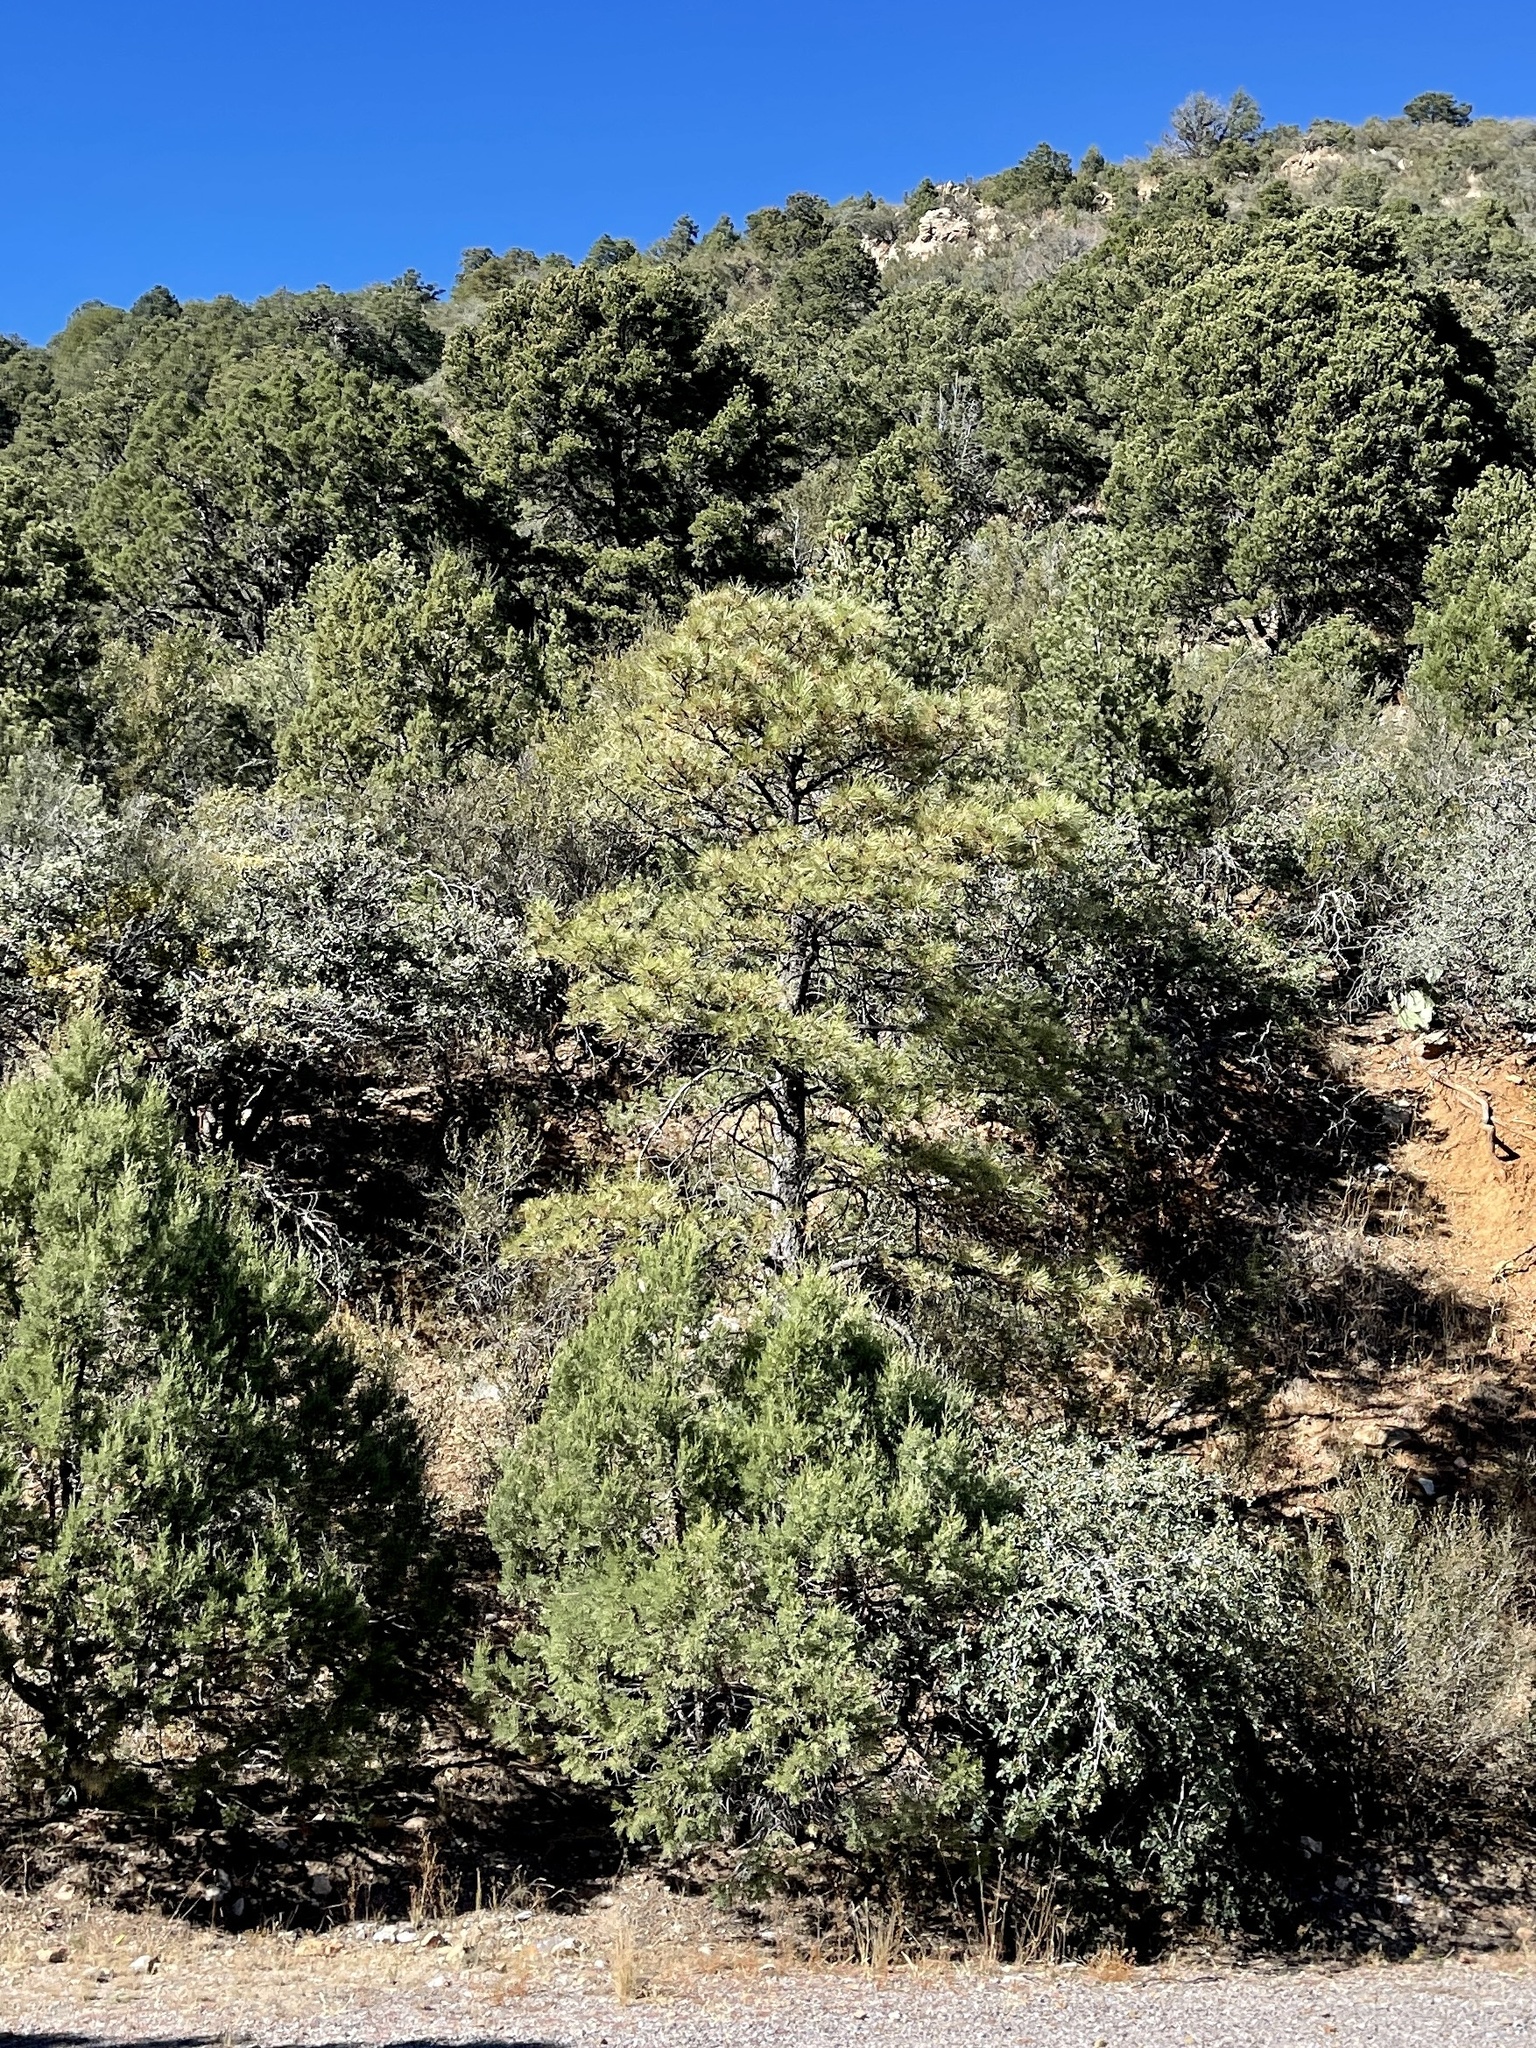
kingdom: Plantae
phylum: Tracheophyta
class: Pinopsida
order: Pinales
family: Pinaceae
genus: Pinus
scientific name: Pinus ponderosa
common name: Western yellow-pine
